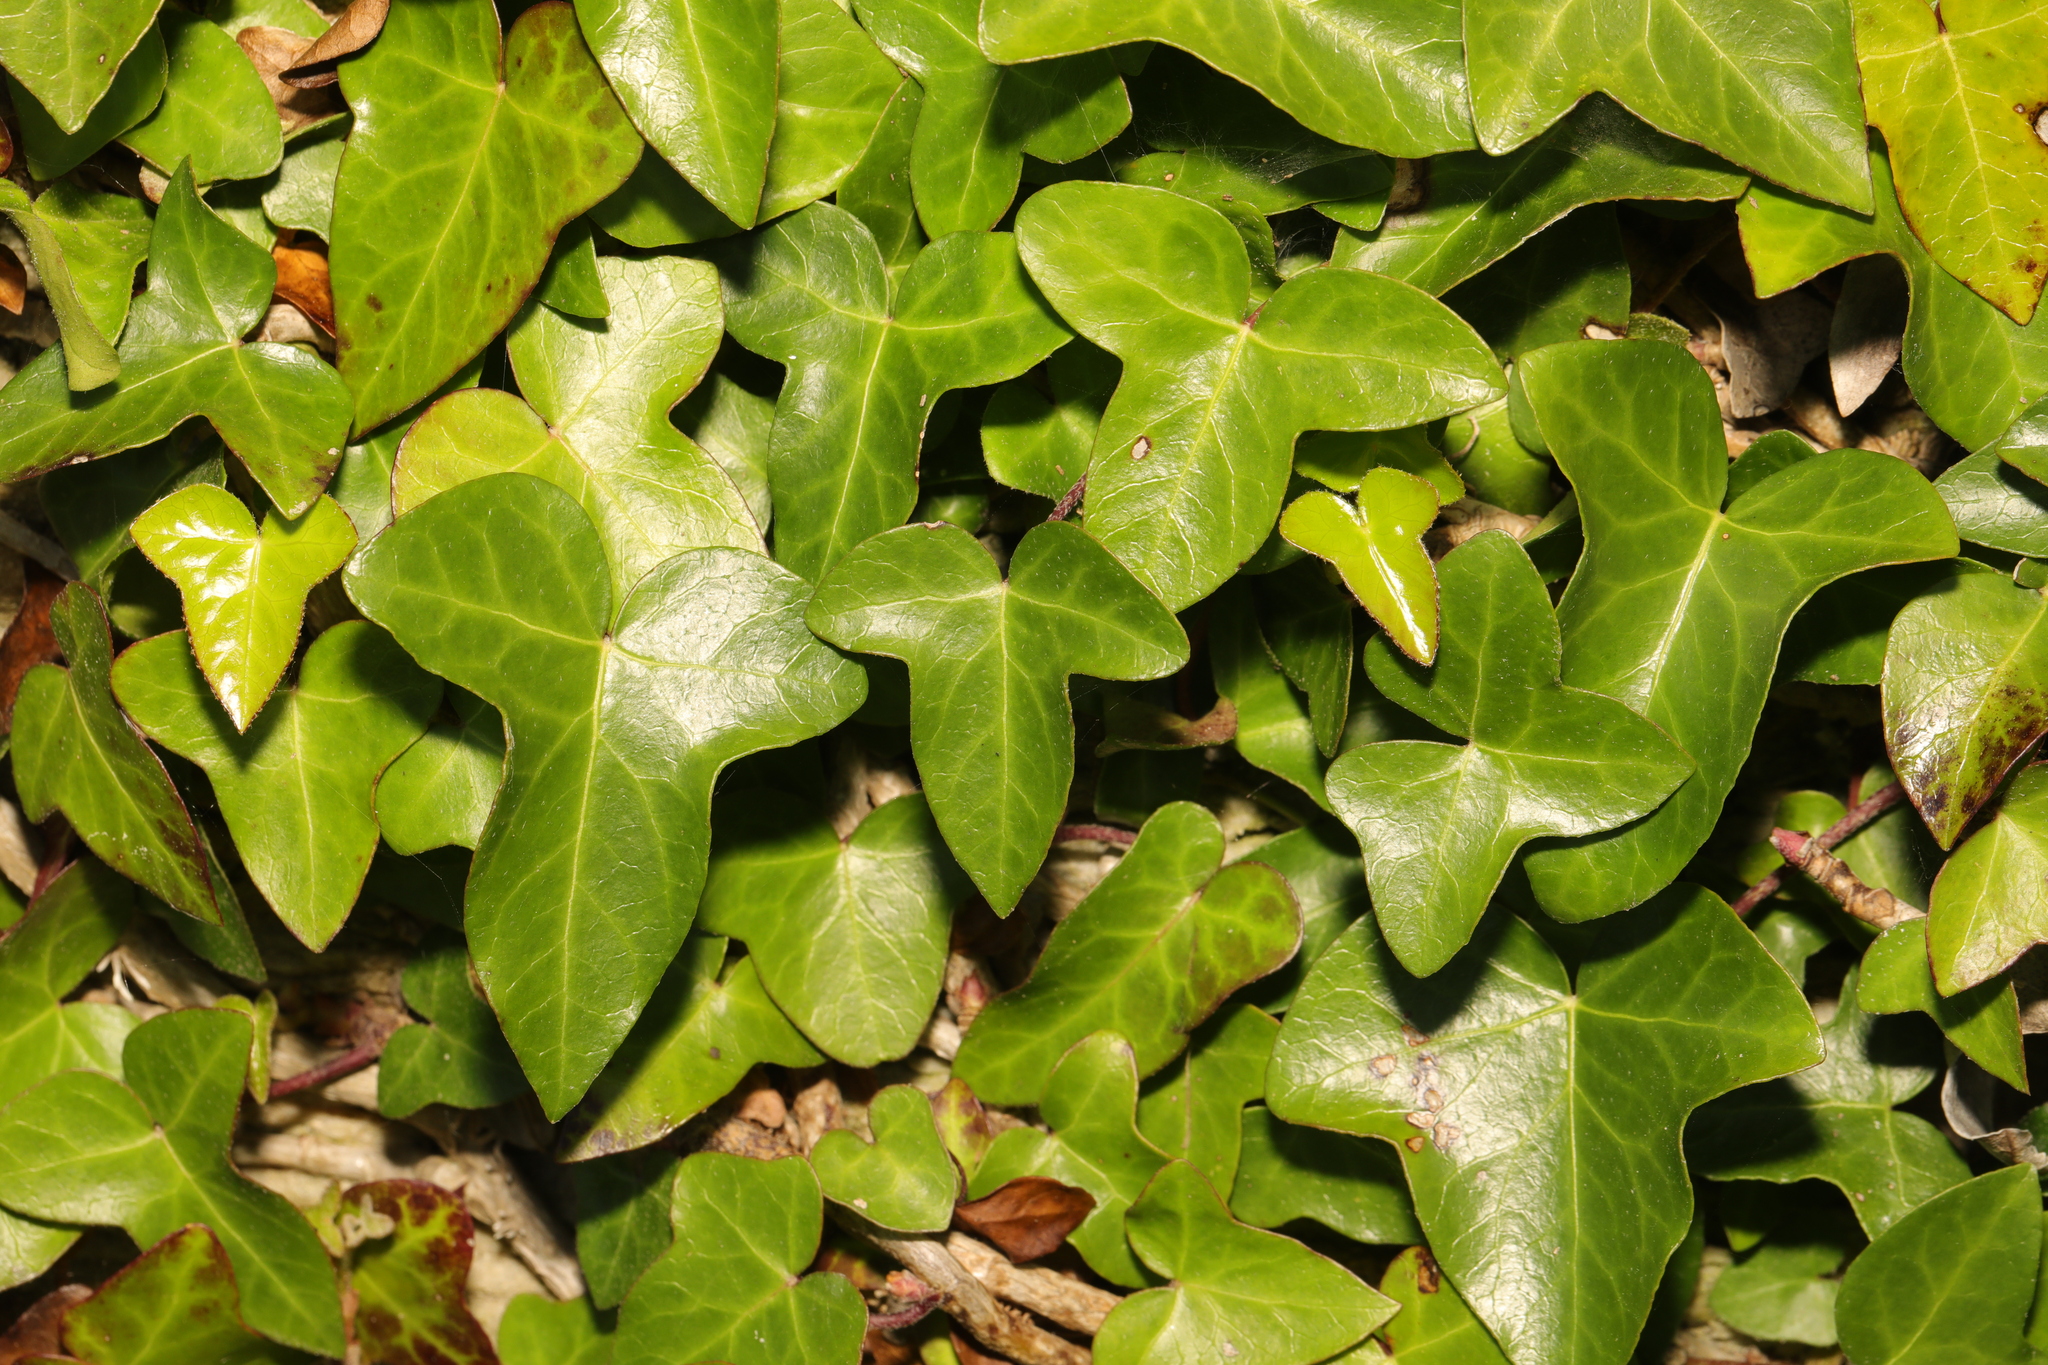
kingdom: Plantae
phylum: Tracheophyta
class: Magnoliopsida
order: Apiales
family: Araliaceae
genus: Hedera
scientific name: Hedera helix
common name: Ivy
